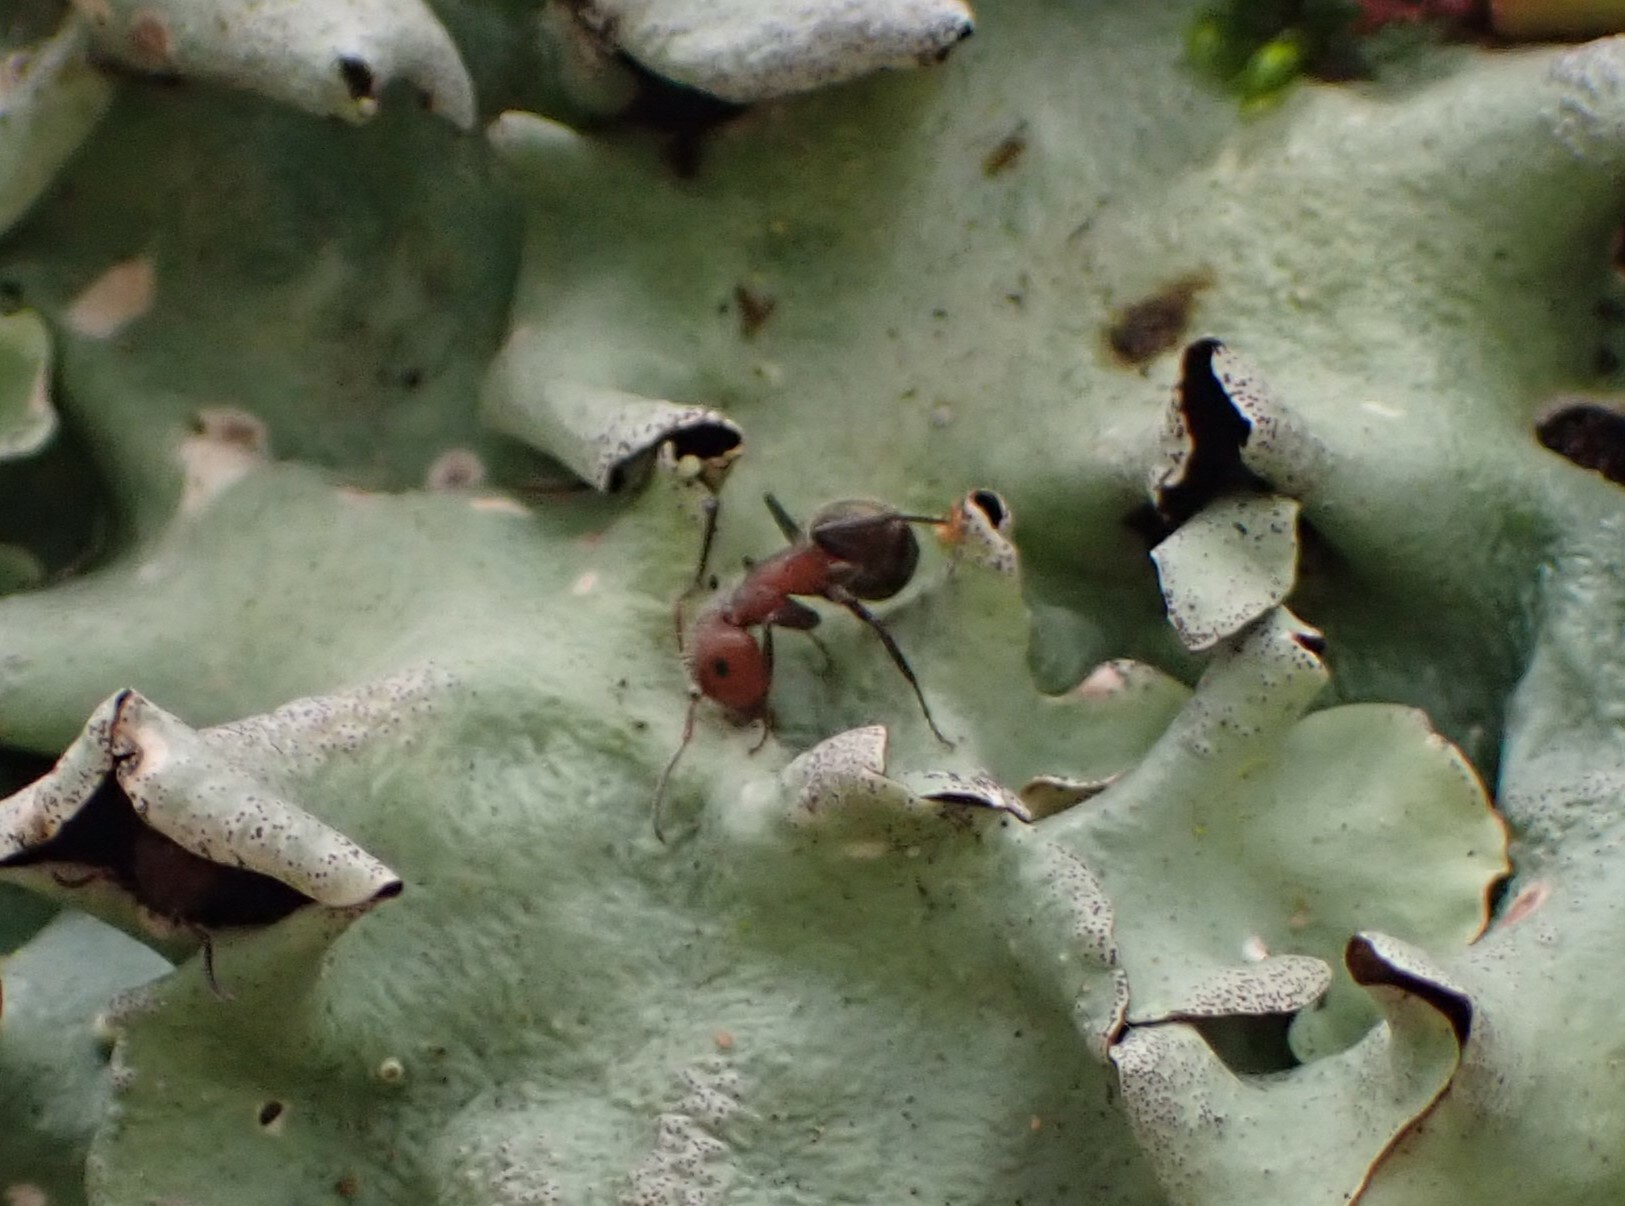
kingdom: Animalia
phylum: Arthropoda
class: Insecta
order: Hymenoptera
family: Formicidae
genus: Camponotus
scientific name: Camponotus planatus
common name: Compact carpenter ant
